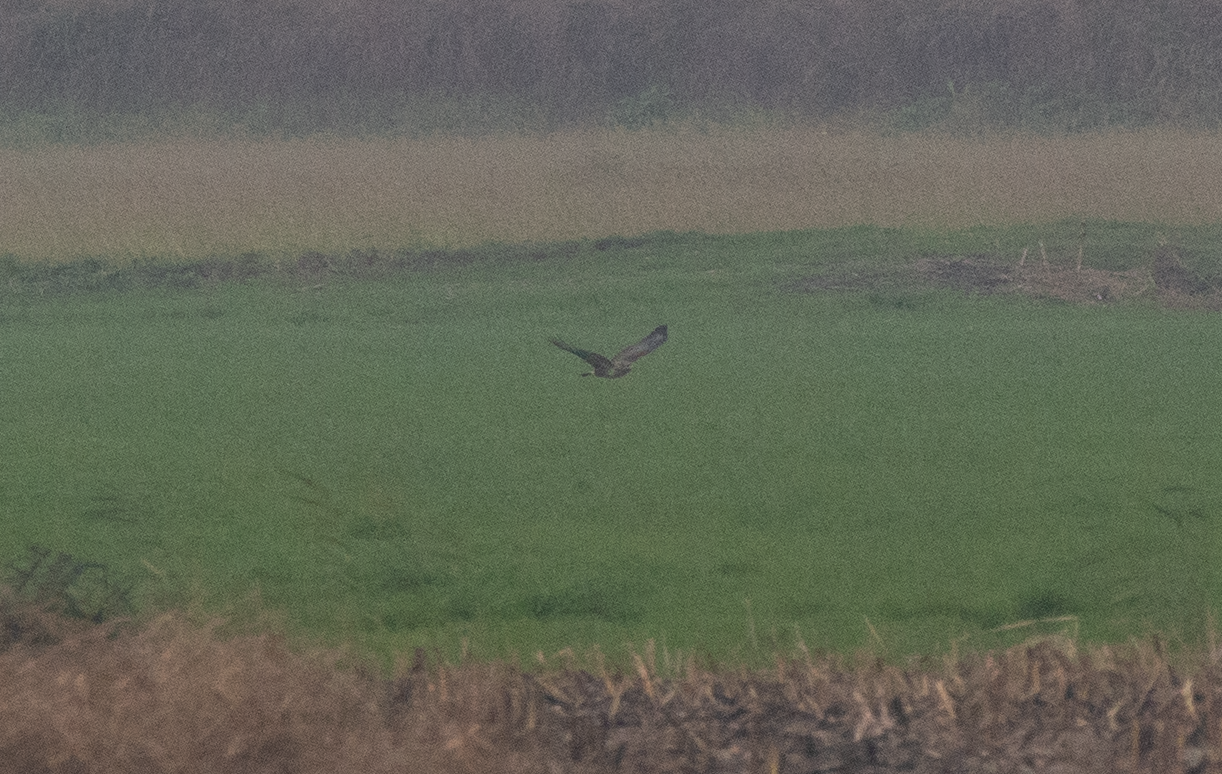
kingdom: Animalia
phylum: Chordata
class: Aves
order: Accipitriformes
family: Accipitridae
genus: Buteo
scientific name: Buteo buteo
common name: Common buzzard
